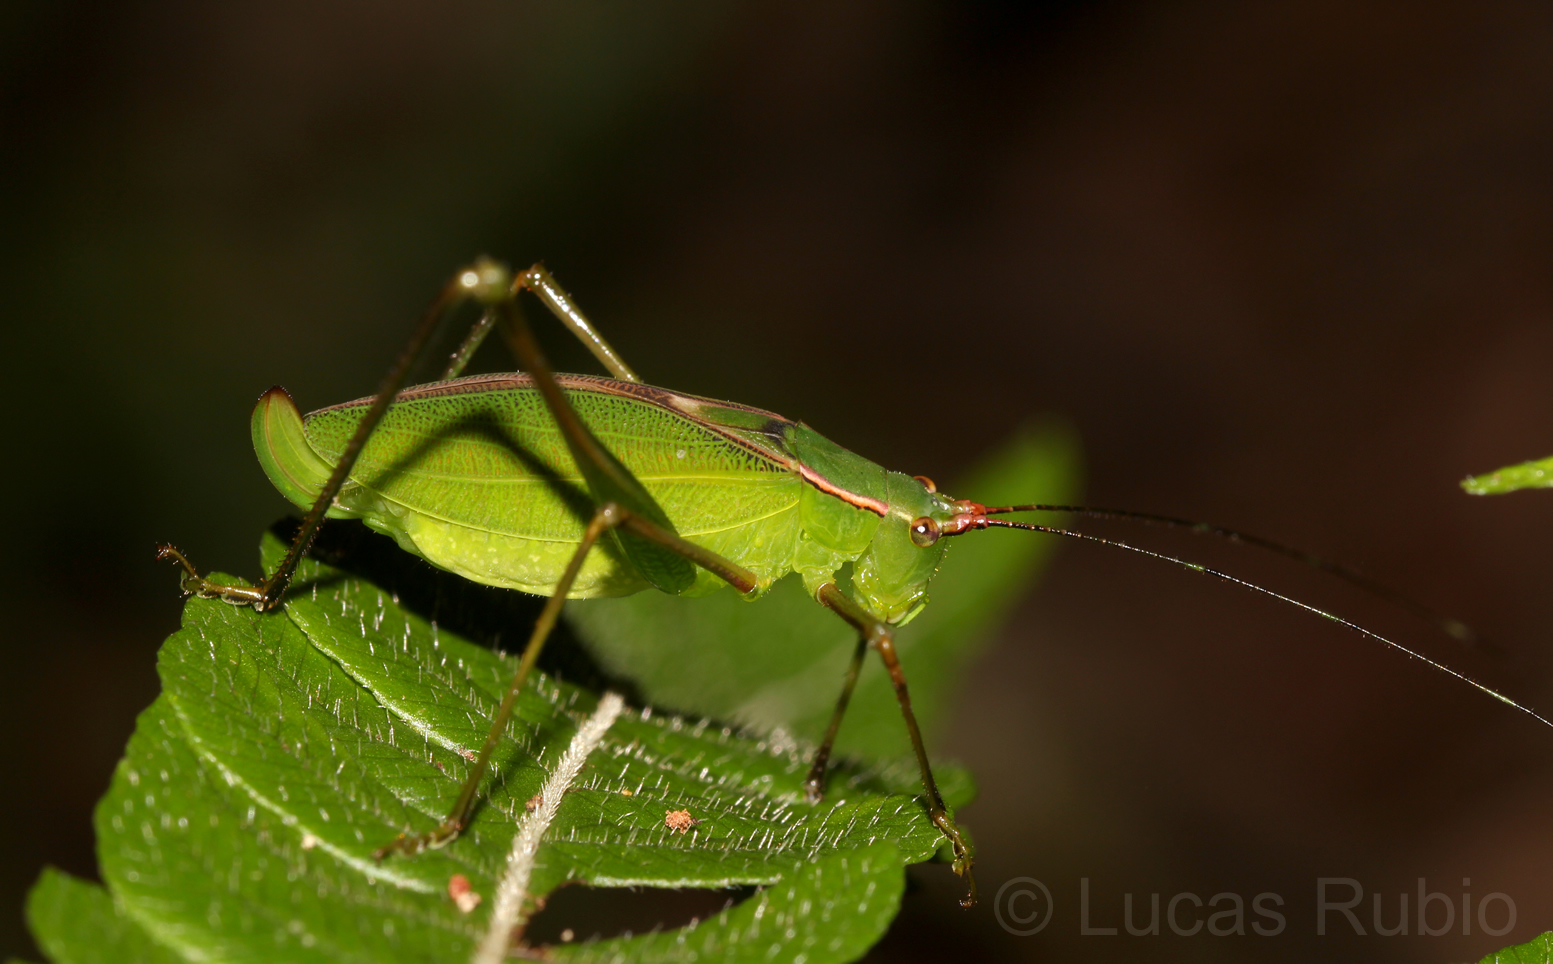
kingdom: Animalia
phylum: Arthropoda
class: Insecta
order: Orthoptera
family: Tettigoniidae
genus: Engonia
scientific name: Engonia minor
